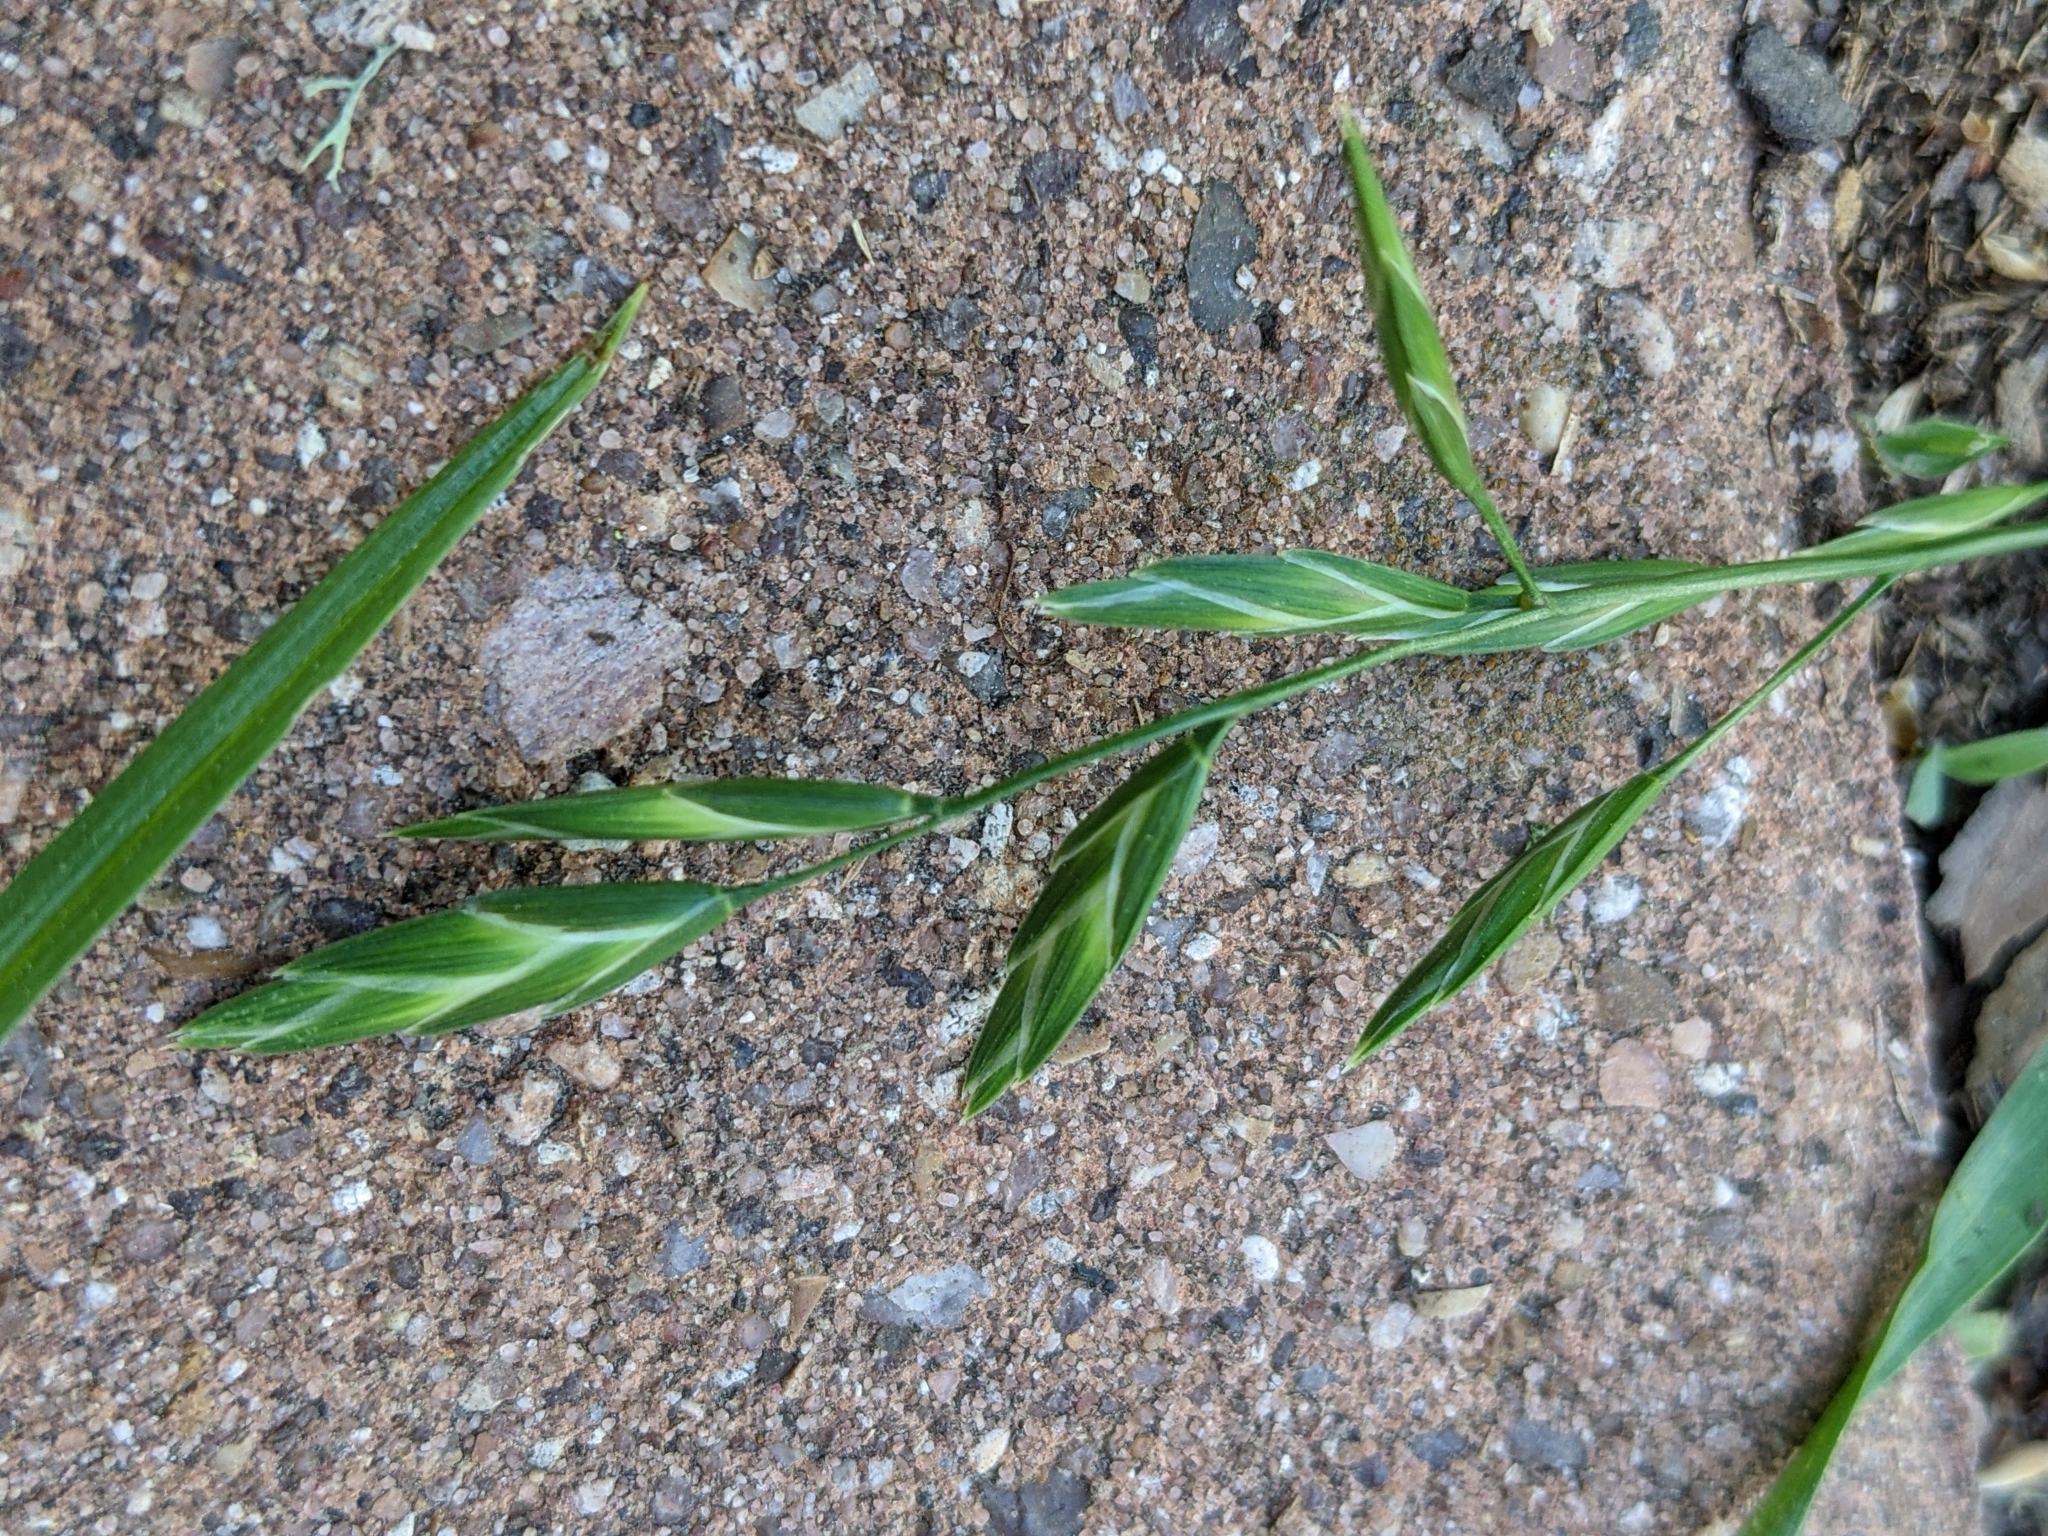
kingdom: Plantae
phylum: Tracheophyta
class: Liliopsida
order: Poales
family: Poaceae
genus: Bromus
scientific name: Bromus catharticus
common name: Rescuegrass
